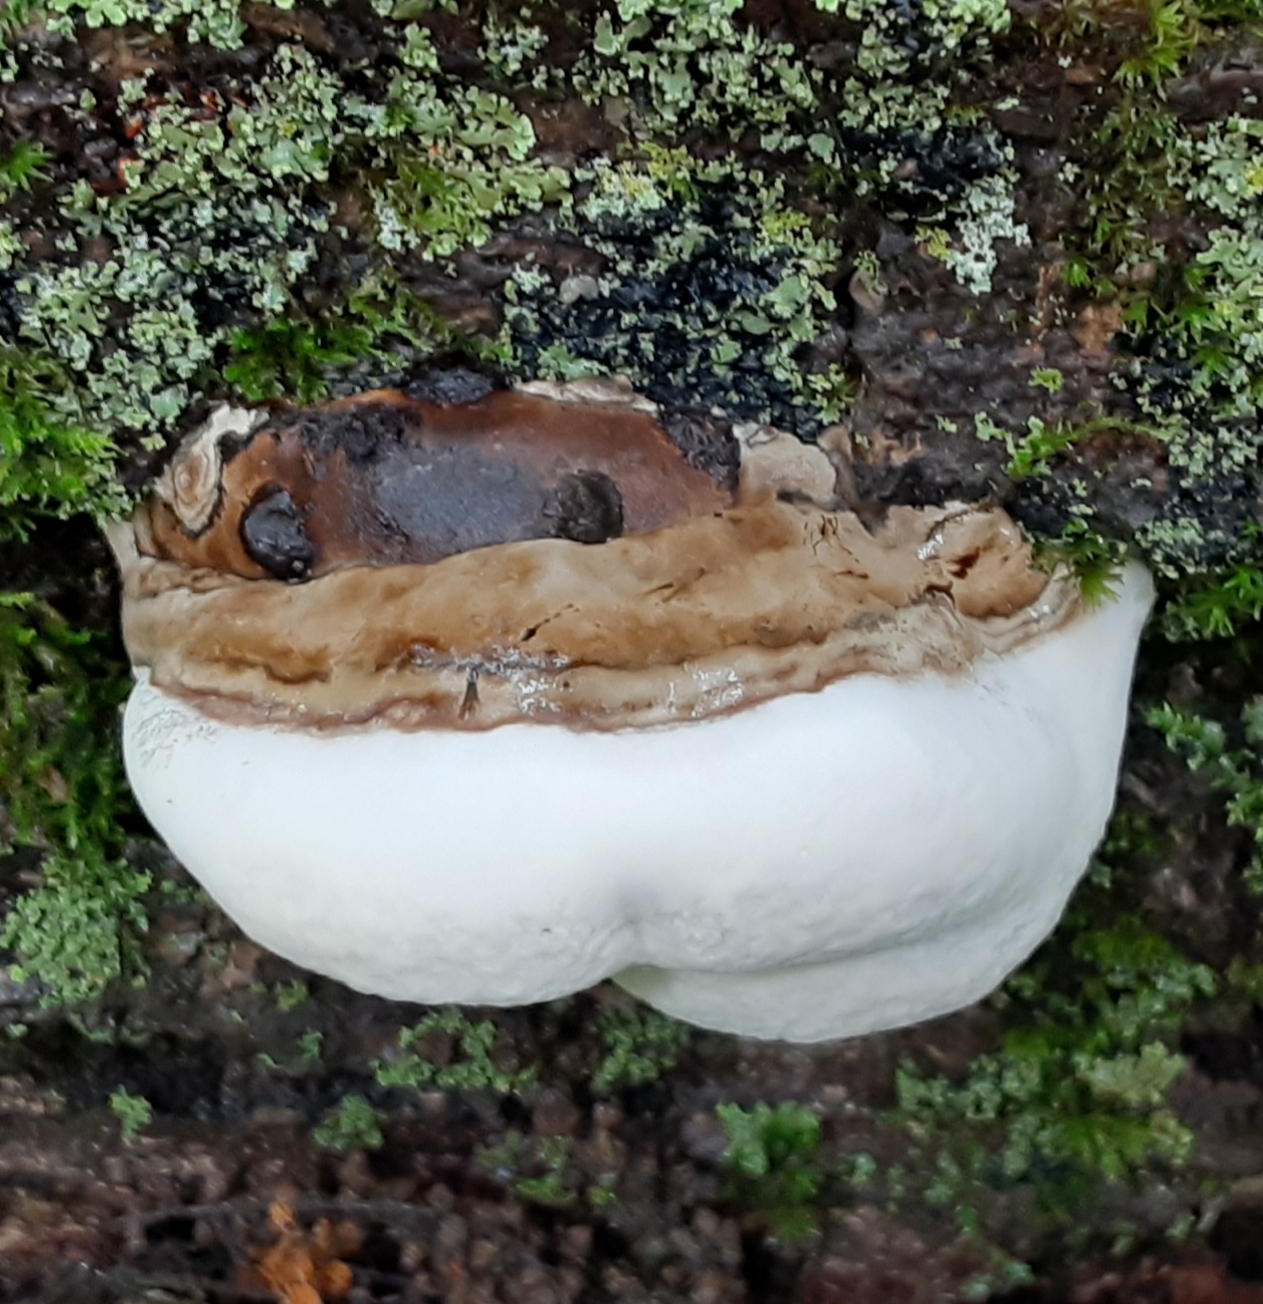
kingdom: Fungi
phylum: Basidiomycota
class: Agaricomycetes
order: Polyporales
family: Polyporaceae
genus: Ganoderma
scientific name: Ganoderma applanatum
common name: Artist's bracket
